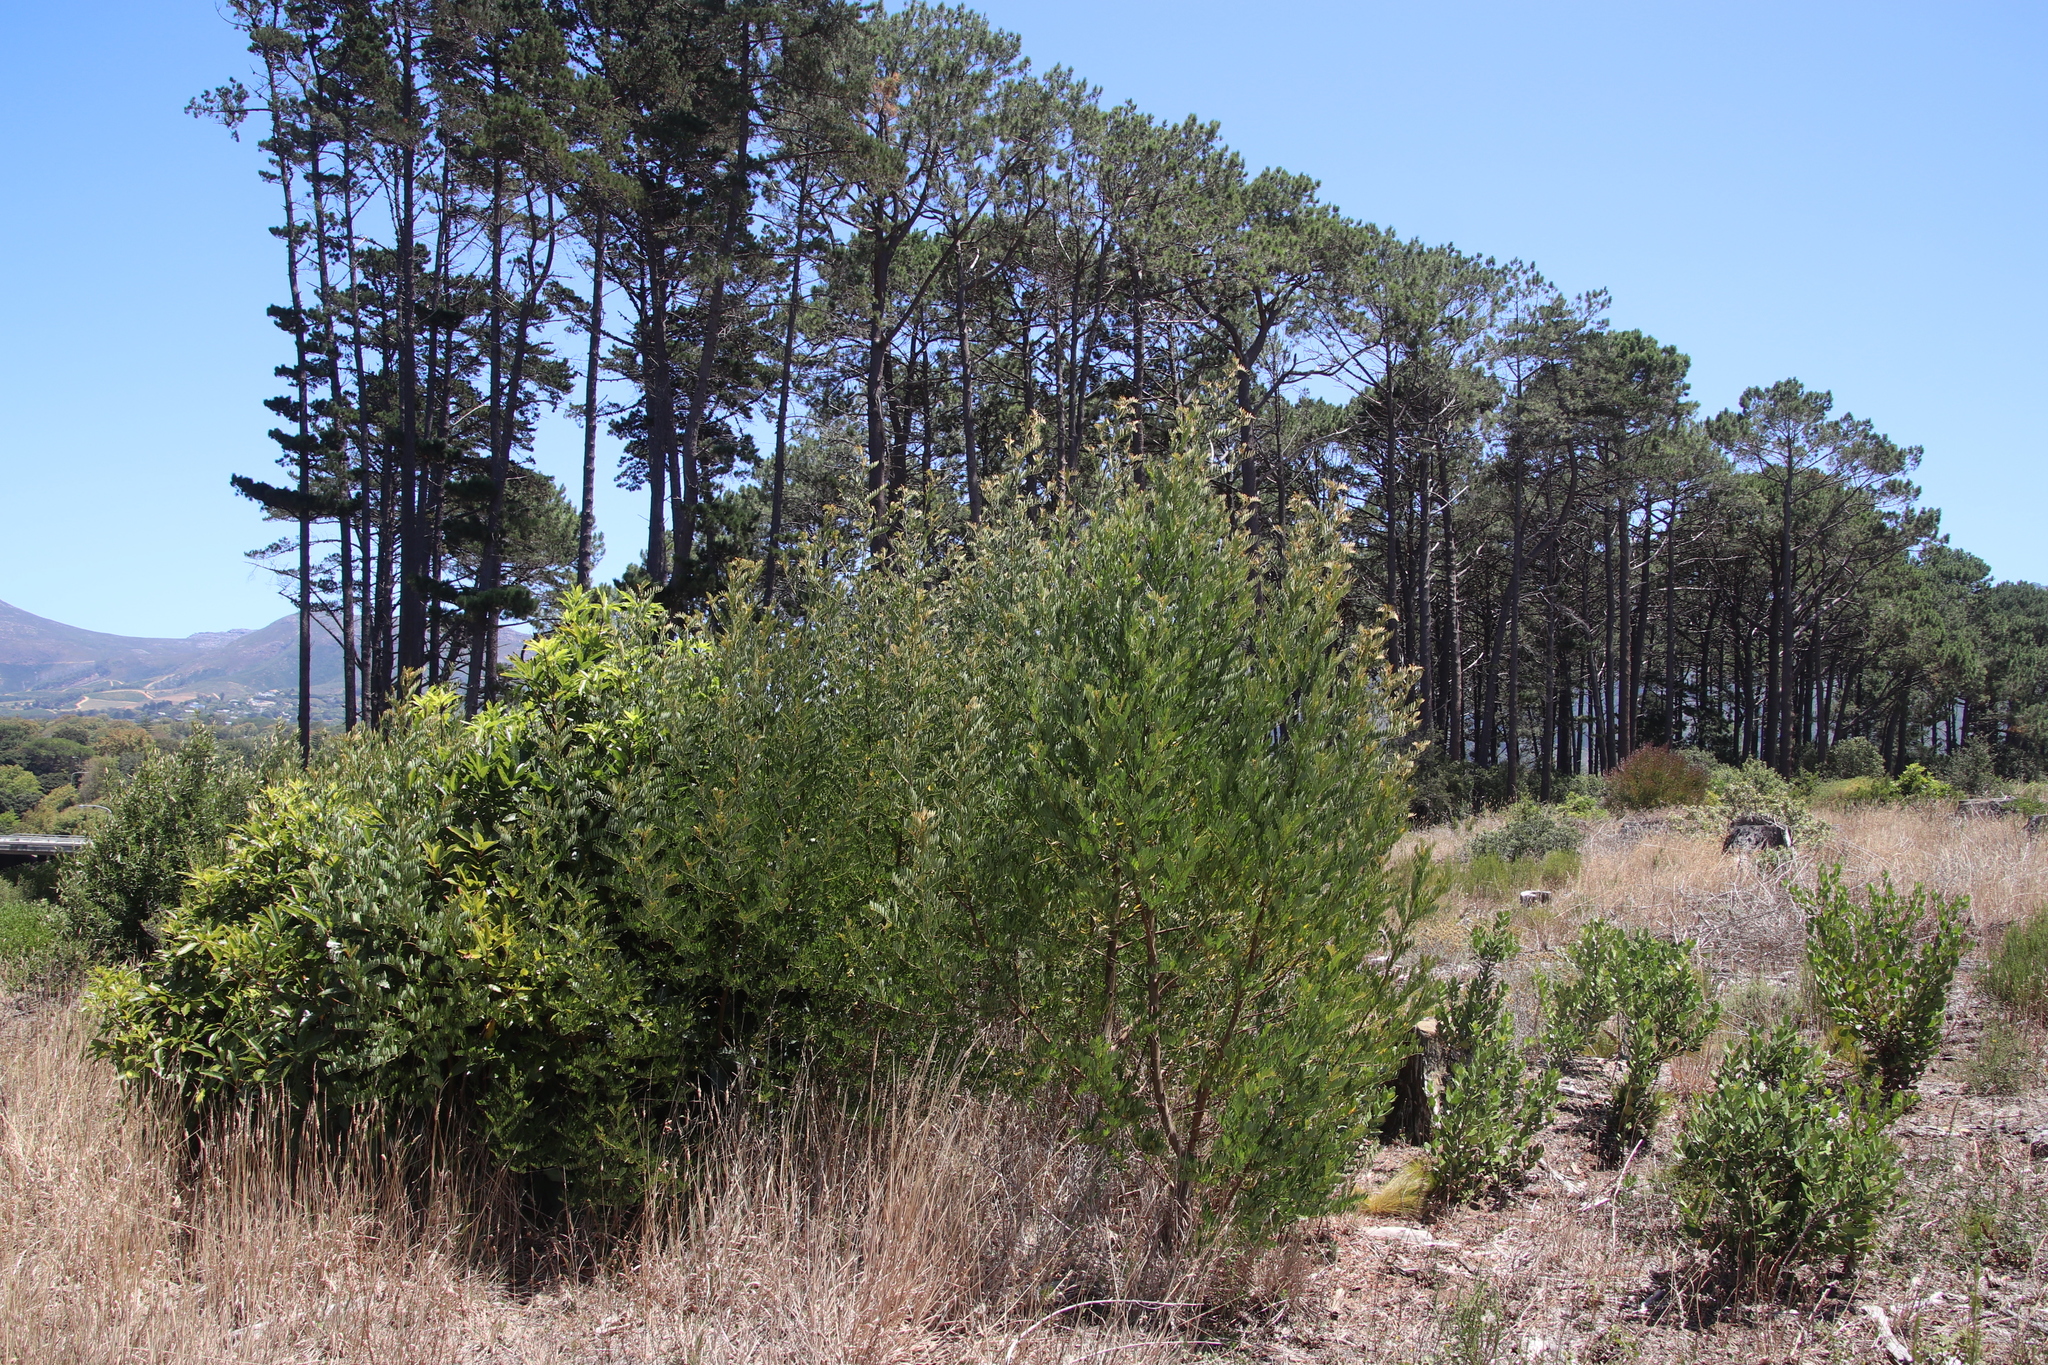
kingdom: Plantae
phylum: Tracheophyta
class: Magnoliopsida
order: Fabales
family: Fabaceae
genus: Virgilia
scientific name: Virgilia oroboides
